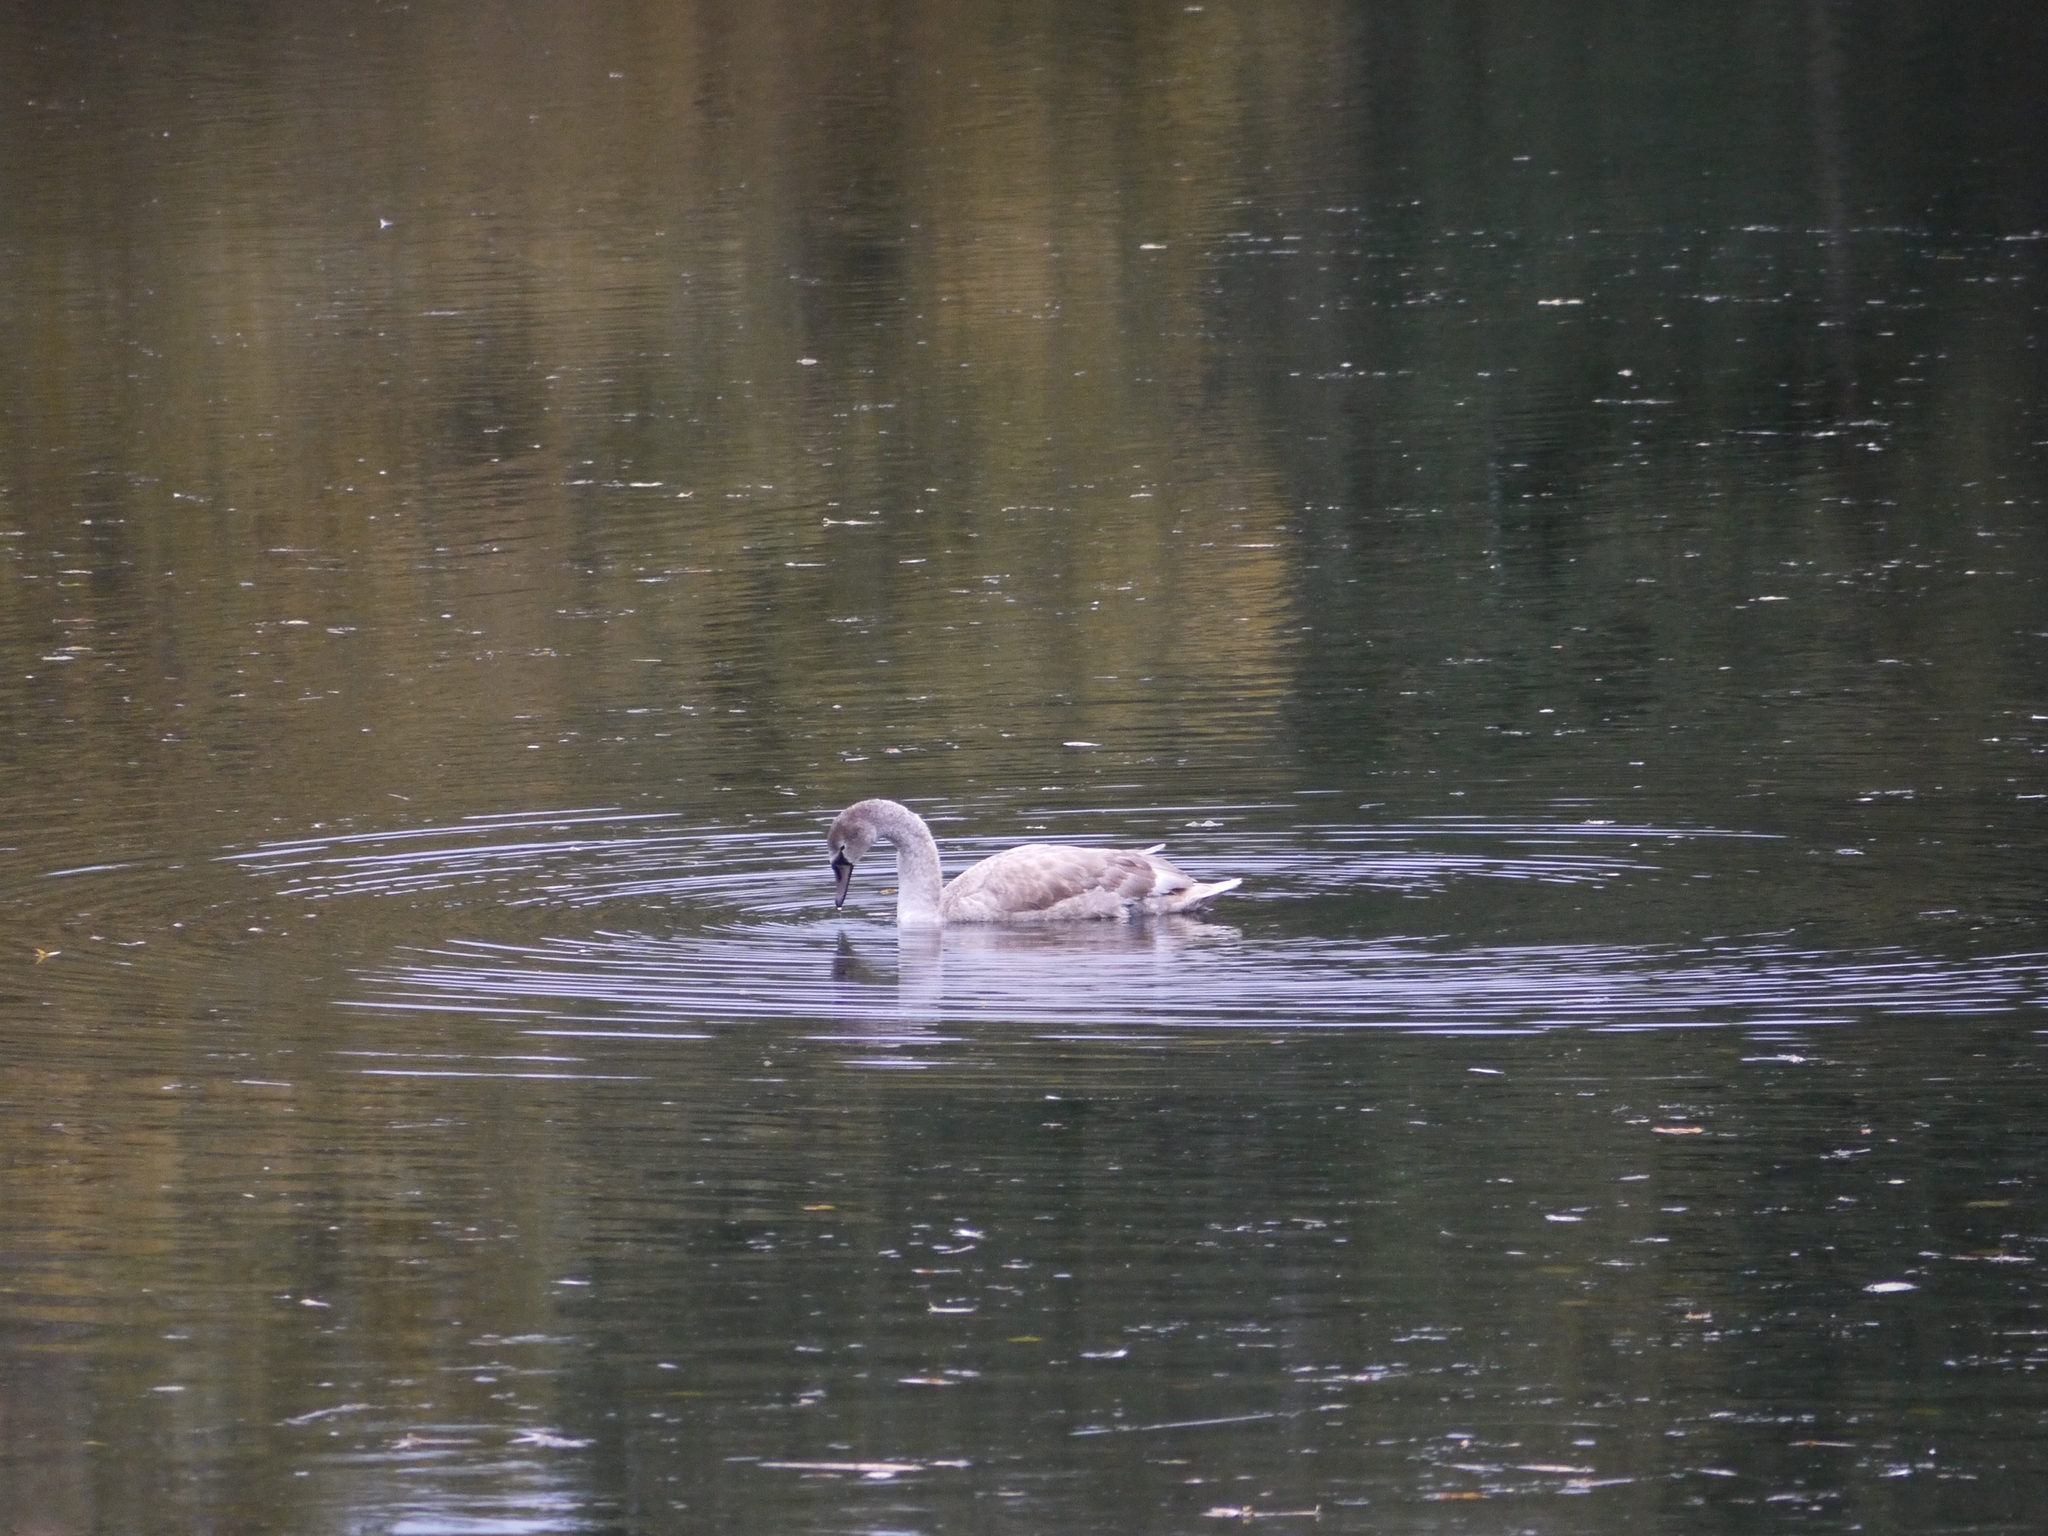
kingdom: Animalia
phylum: Chordata
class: Aves
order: Anseriformes
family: Anatidae
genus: Cygnus
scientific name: Cygnus olor
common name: Mute swan
